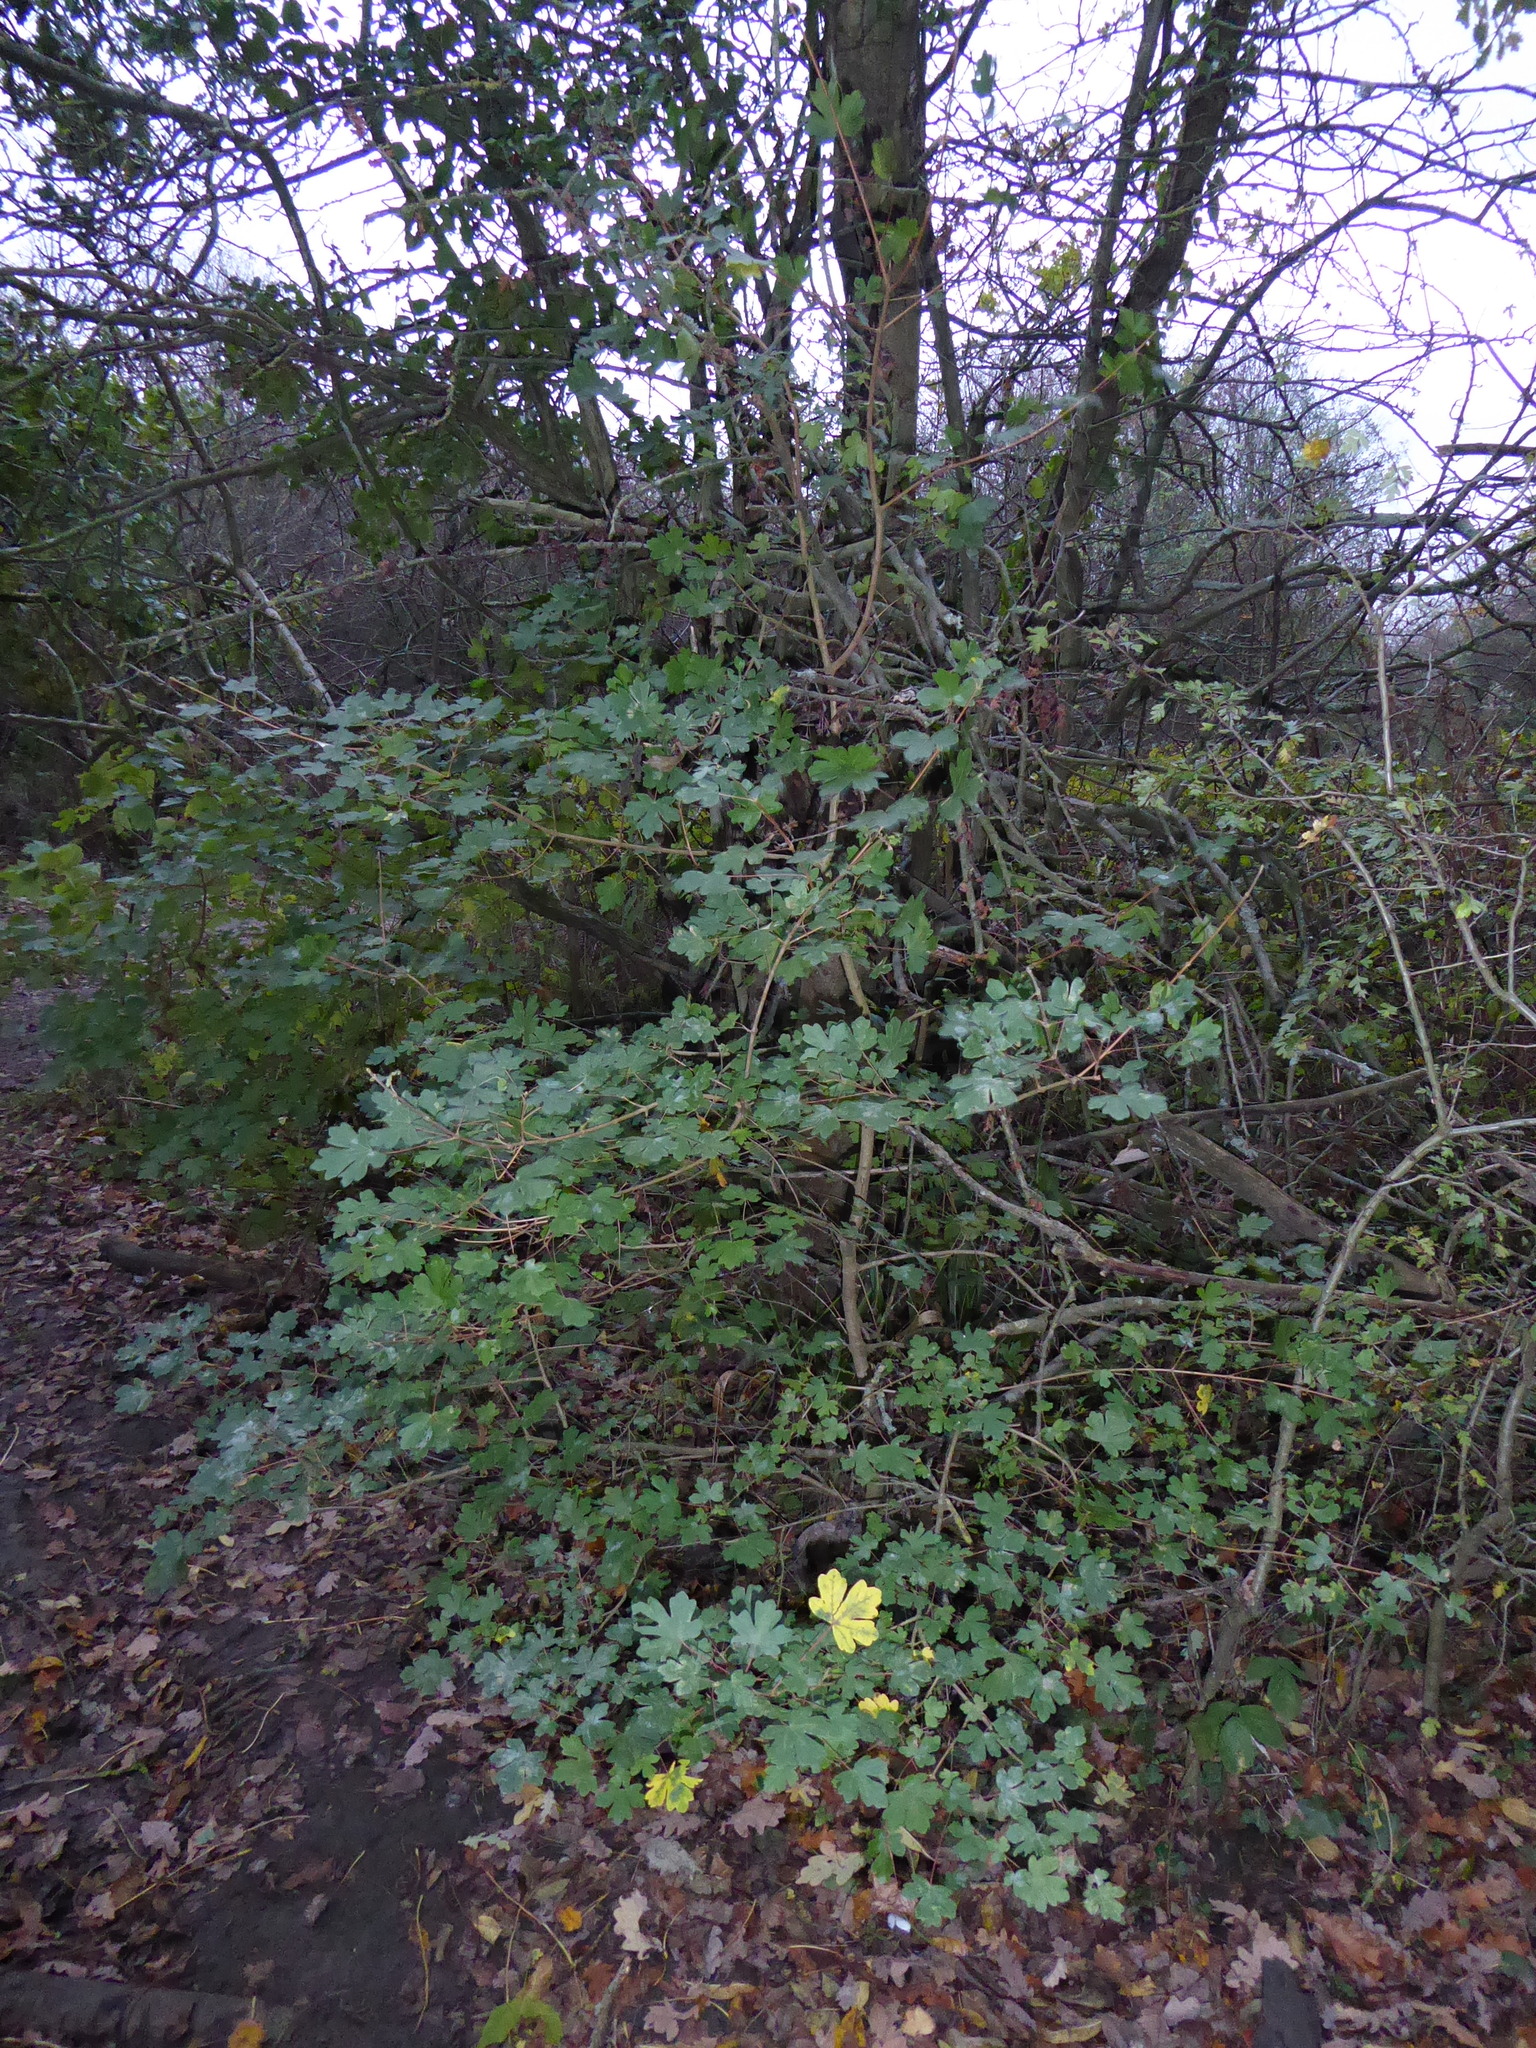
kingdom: Plantae
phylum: Tracheophyta
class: Magnoliopsida
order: Sapindales
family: Sapindaceae
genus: Acer
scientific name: Acer campestre
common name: Field maple
